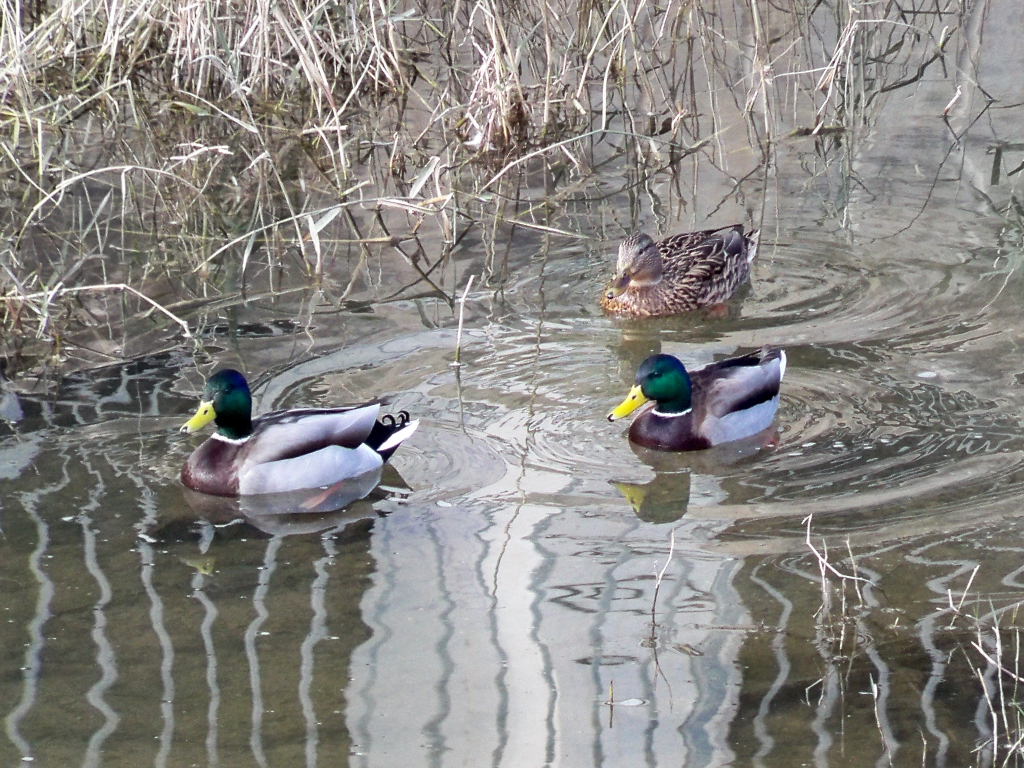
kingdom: Animalia
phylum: Chordata
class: Aves
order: Anseriformes
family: Anatidae
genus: Anas
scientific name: Anas platyrhynchos
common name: Mallard
